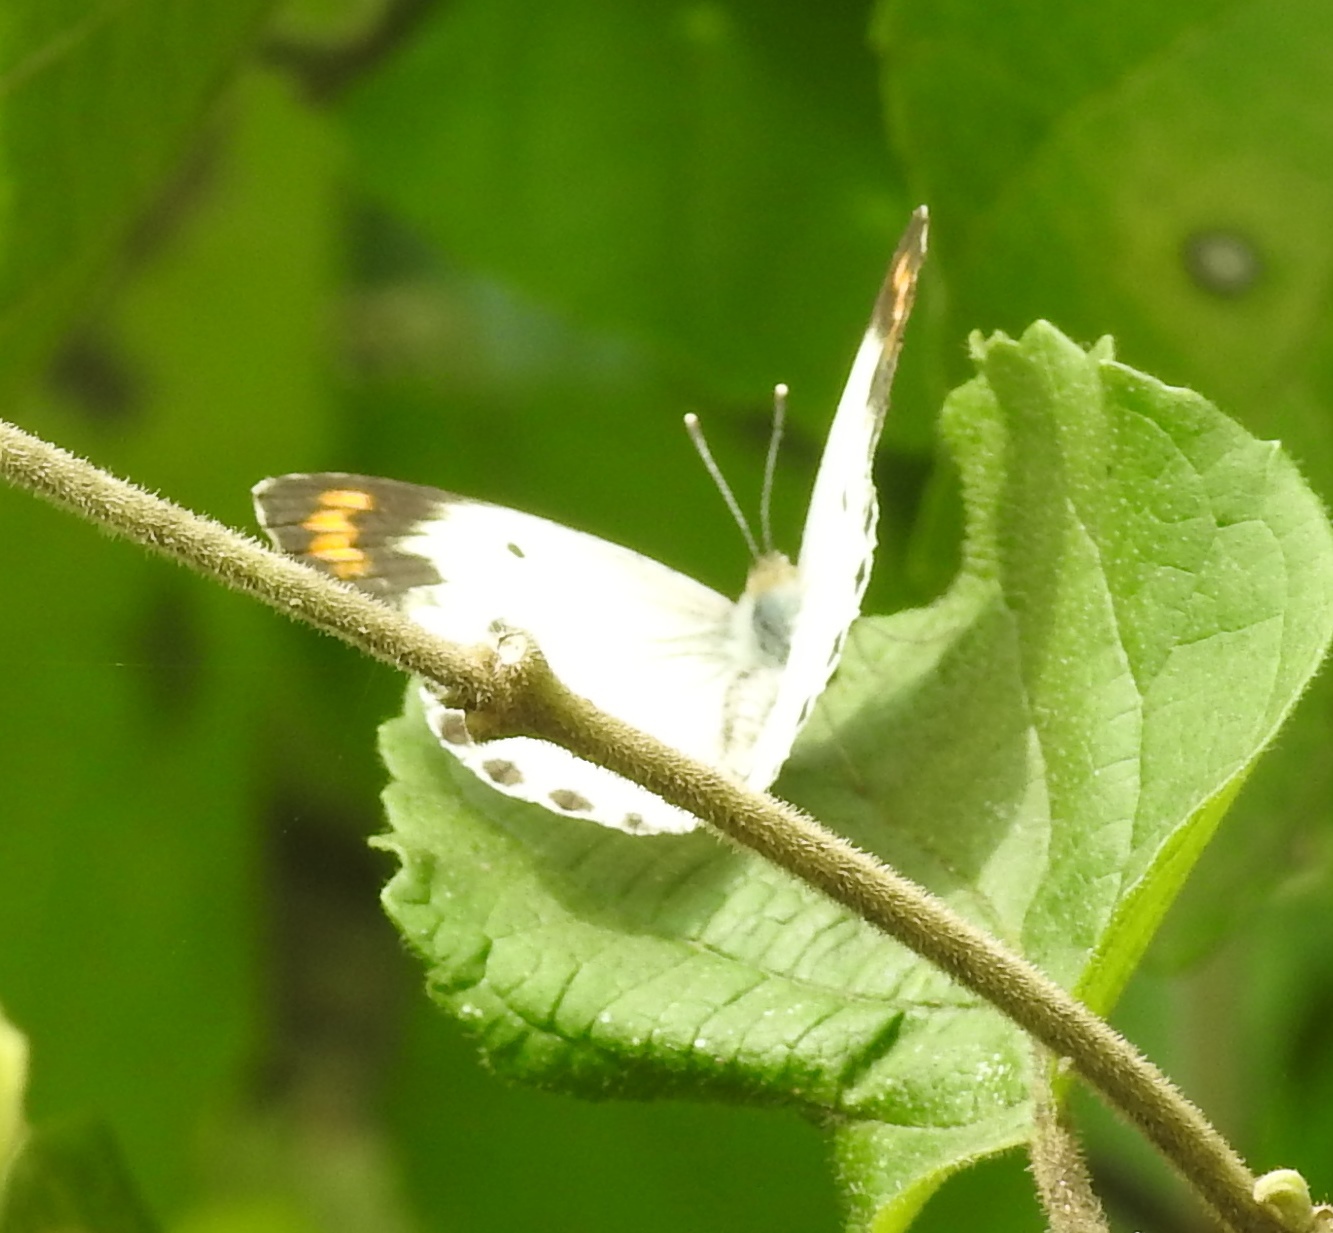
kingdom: Animalia
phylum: Arthropoda
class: Insecta
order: Lepidoptera
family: Pieridae
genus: Colotis
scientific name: Colotis aurora
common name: Plain orange-tip
